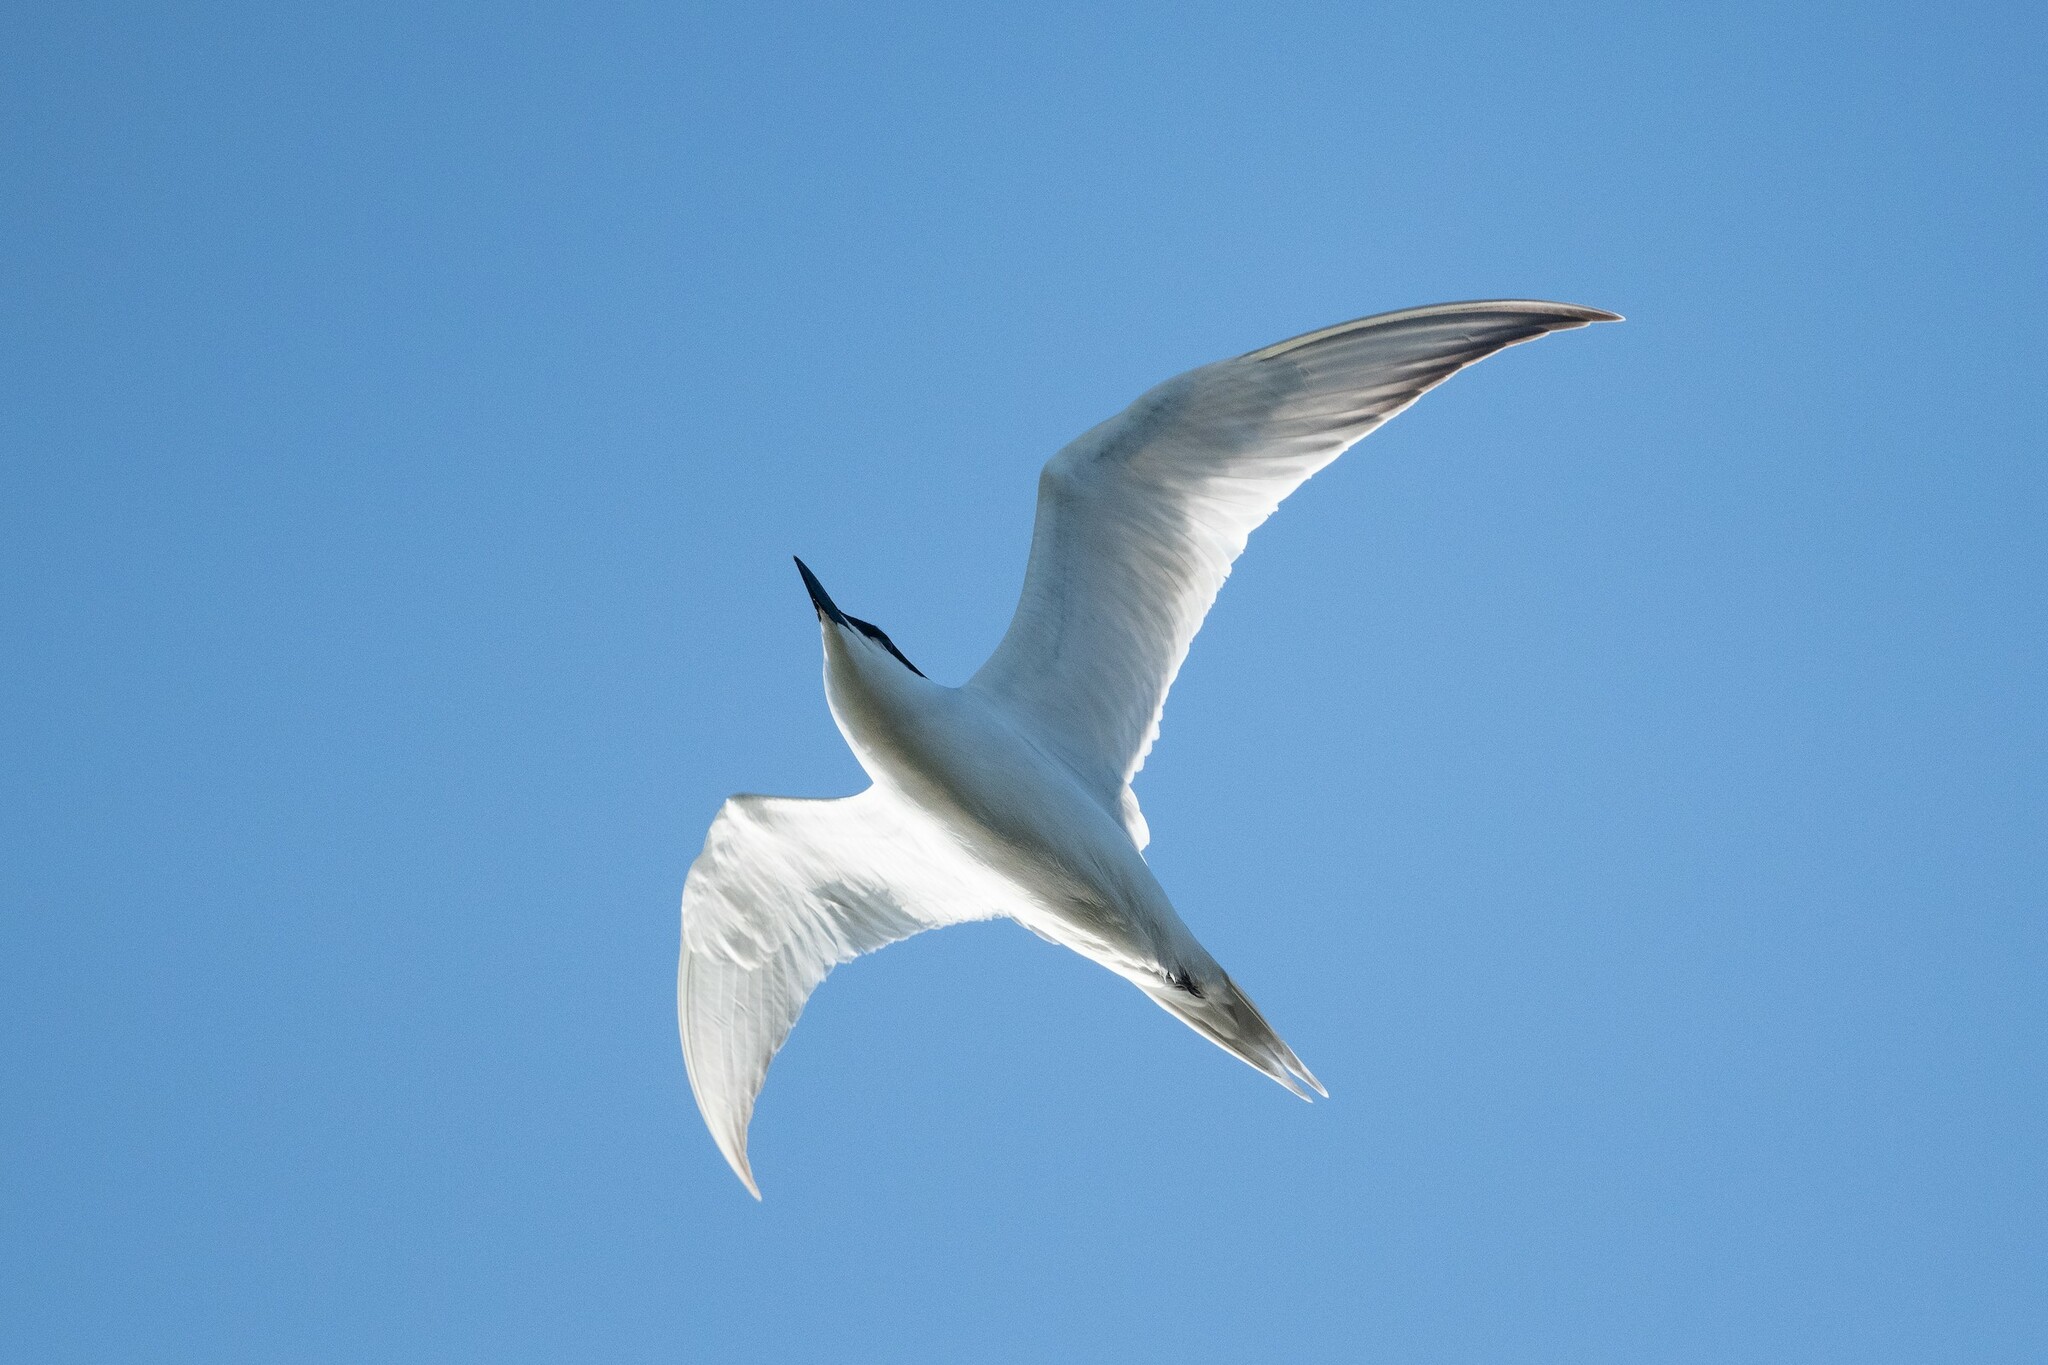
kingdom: Animalia
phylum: Chordata
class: Aves
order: Charadriiformes
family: Laridae
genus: Gelochelidon
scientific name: Gelochelidon nilotica
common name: Gull-billed tern
